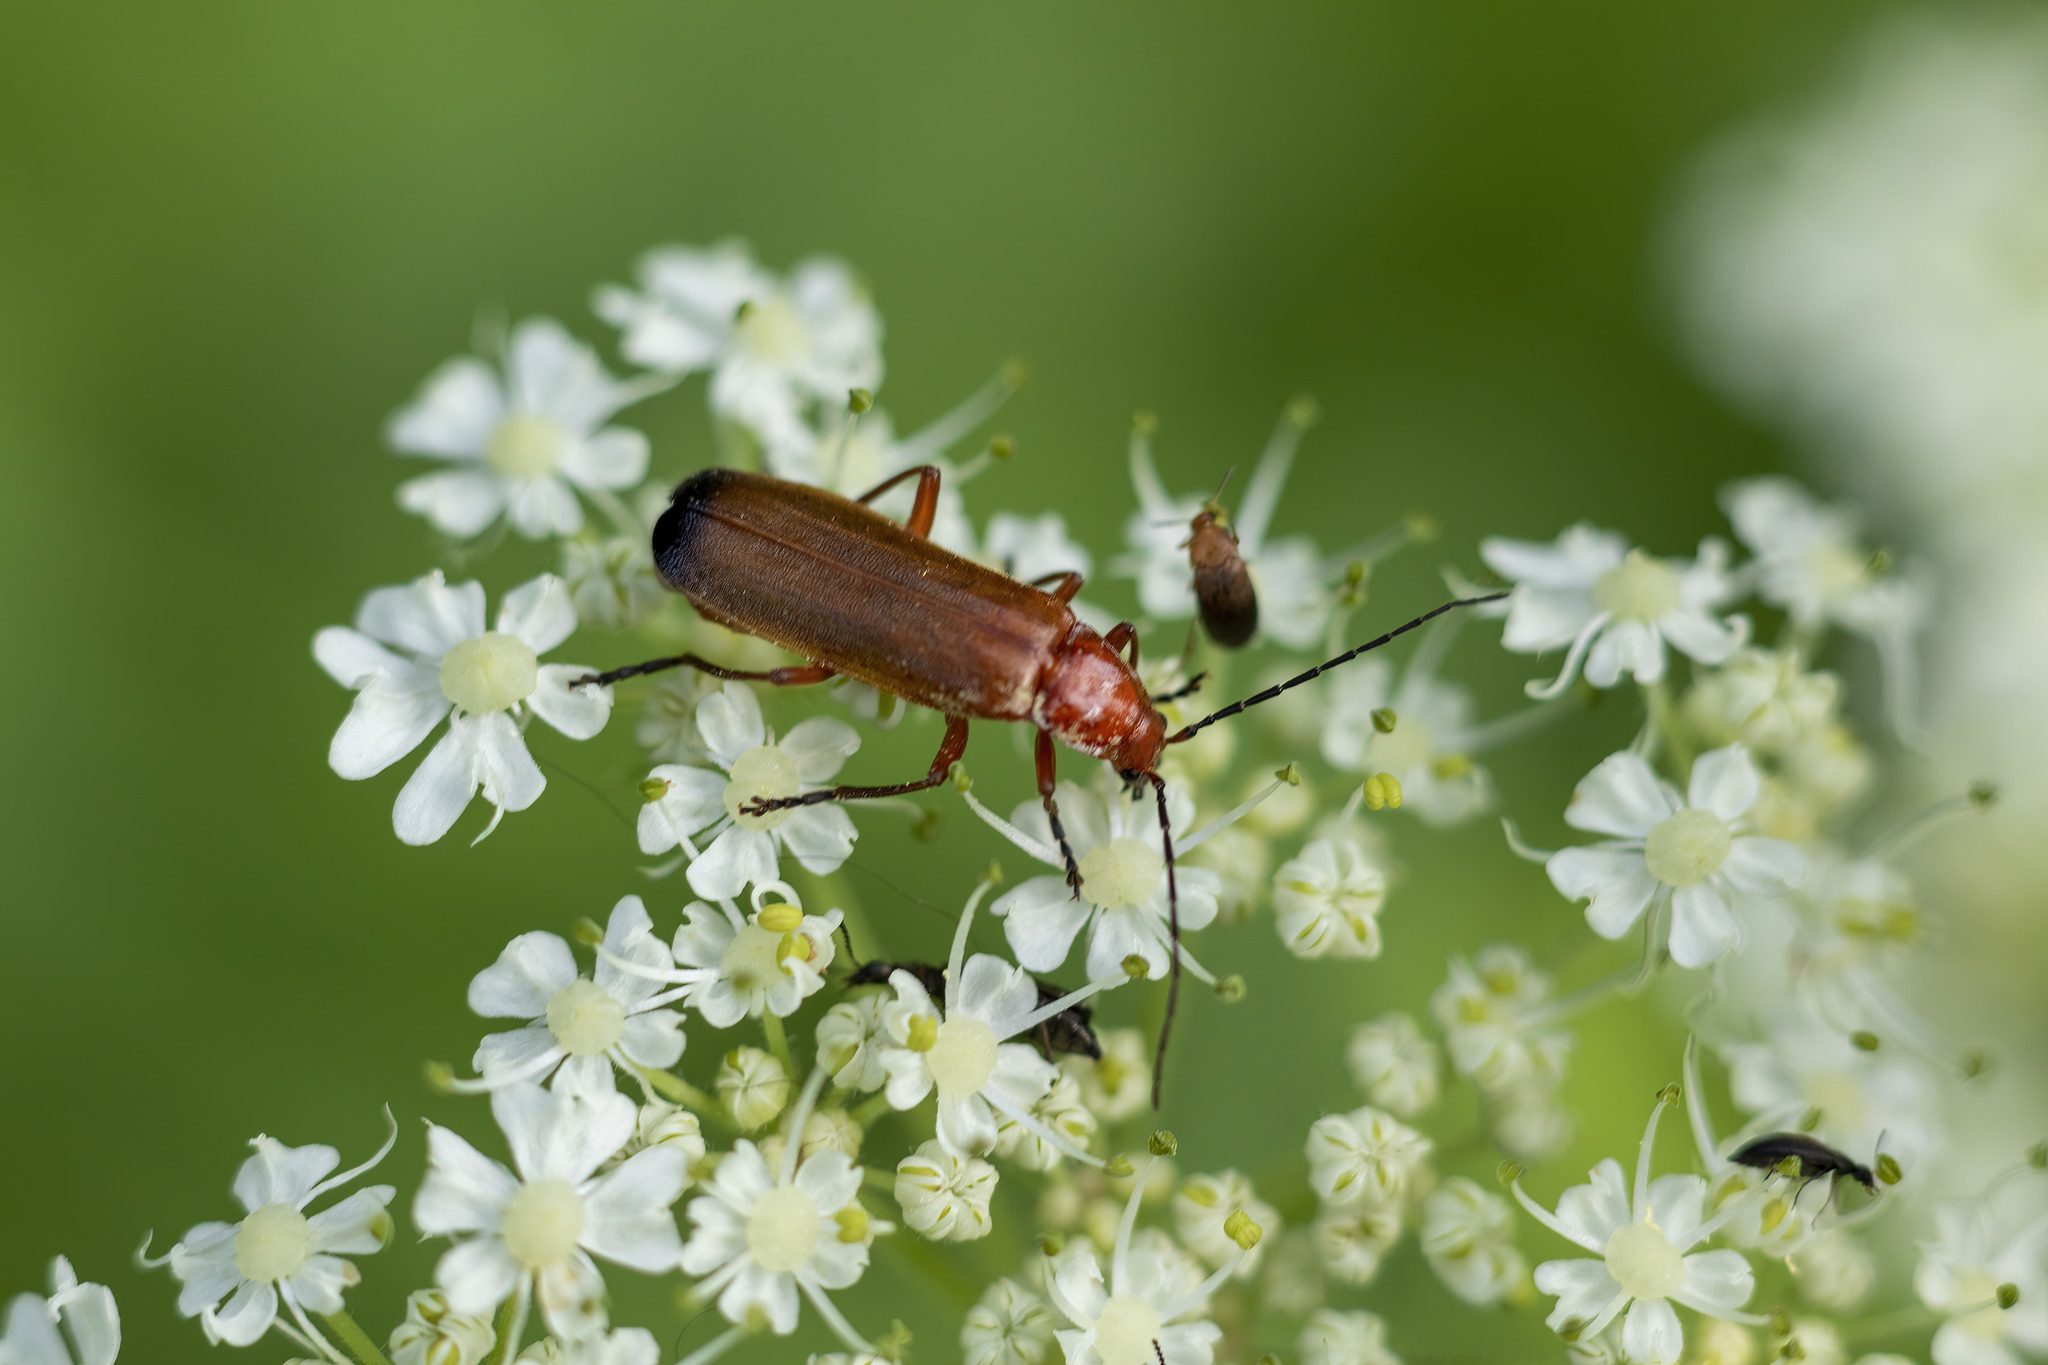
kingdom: Animalia
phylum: Arthropoda
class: Insecta
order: Coleoptera
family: Cantharidae
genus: Rhagonycha
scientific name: Rhagonycha fulva
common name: Common red soldier beetle
